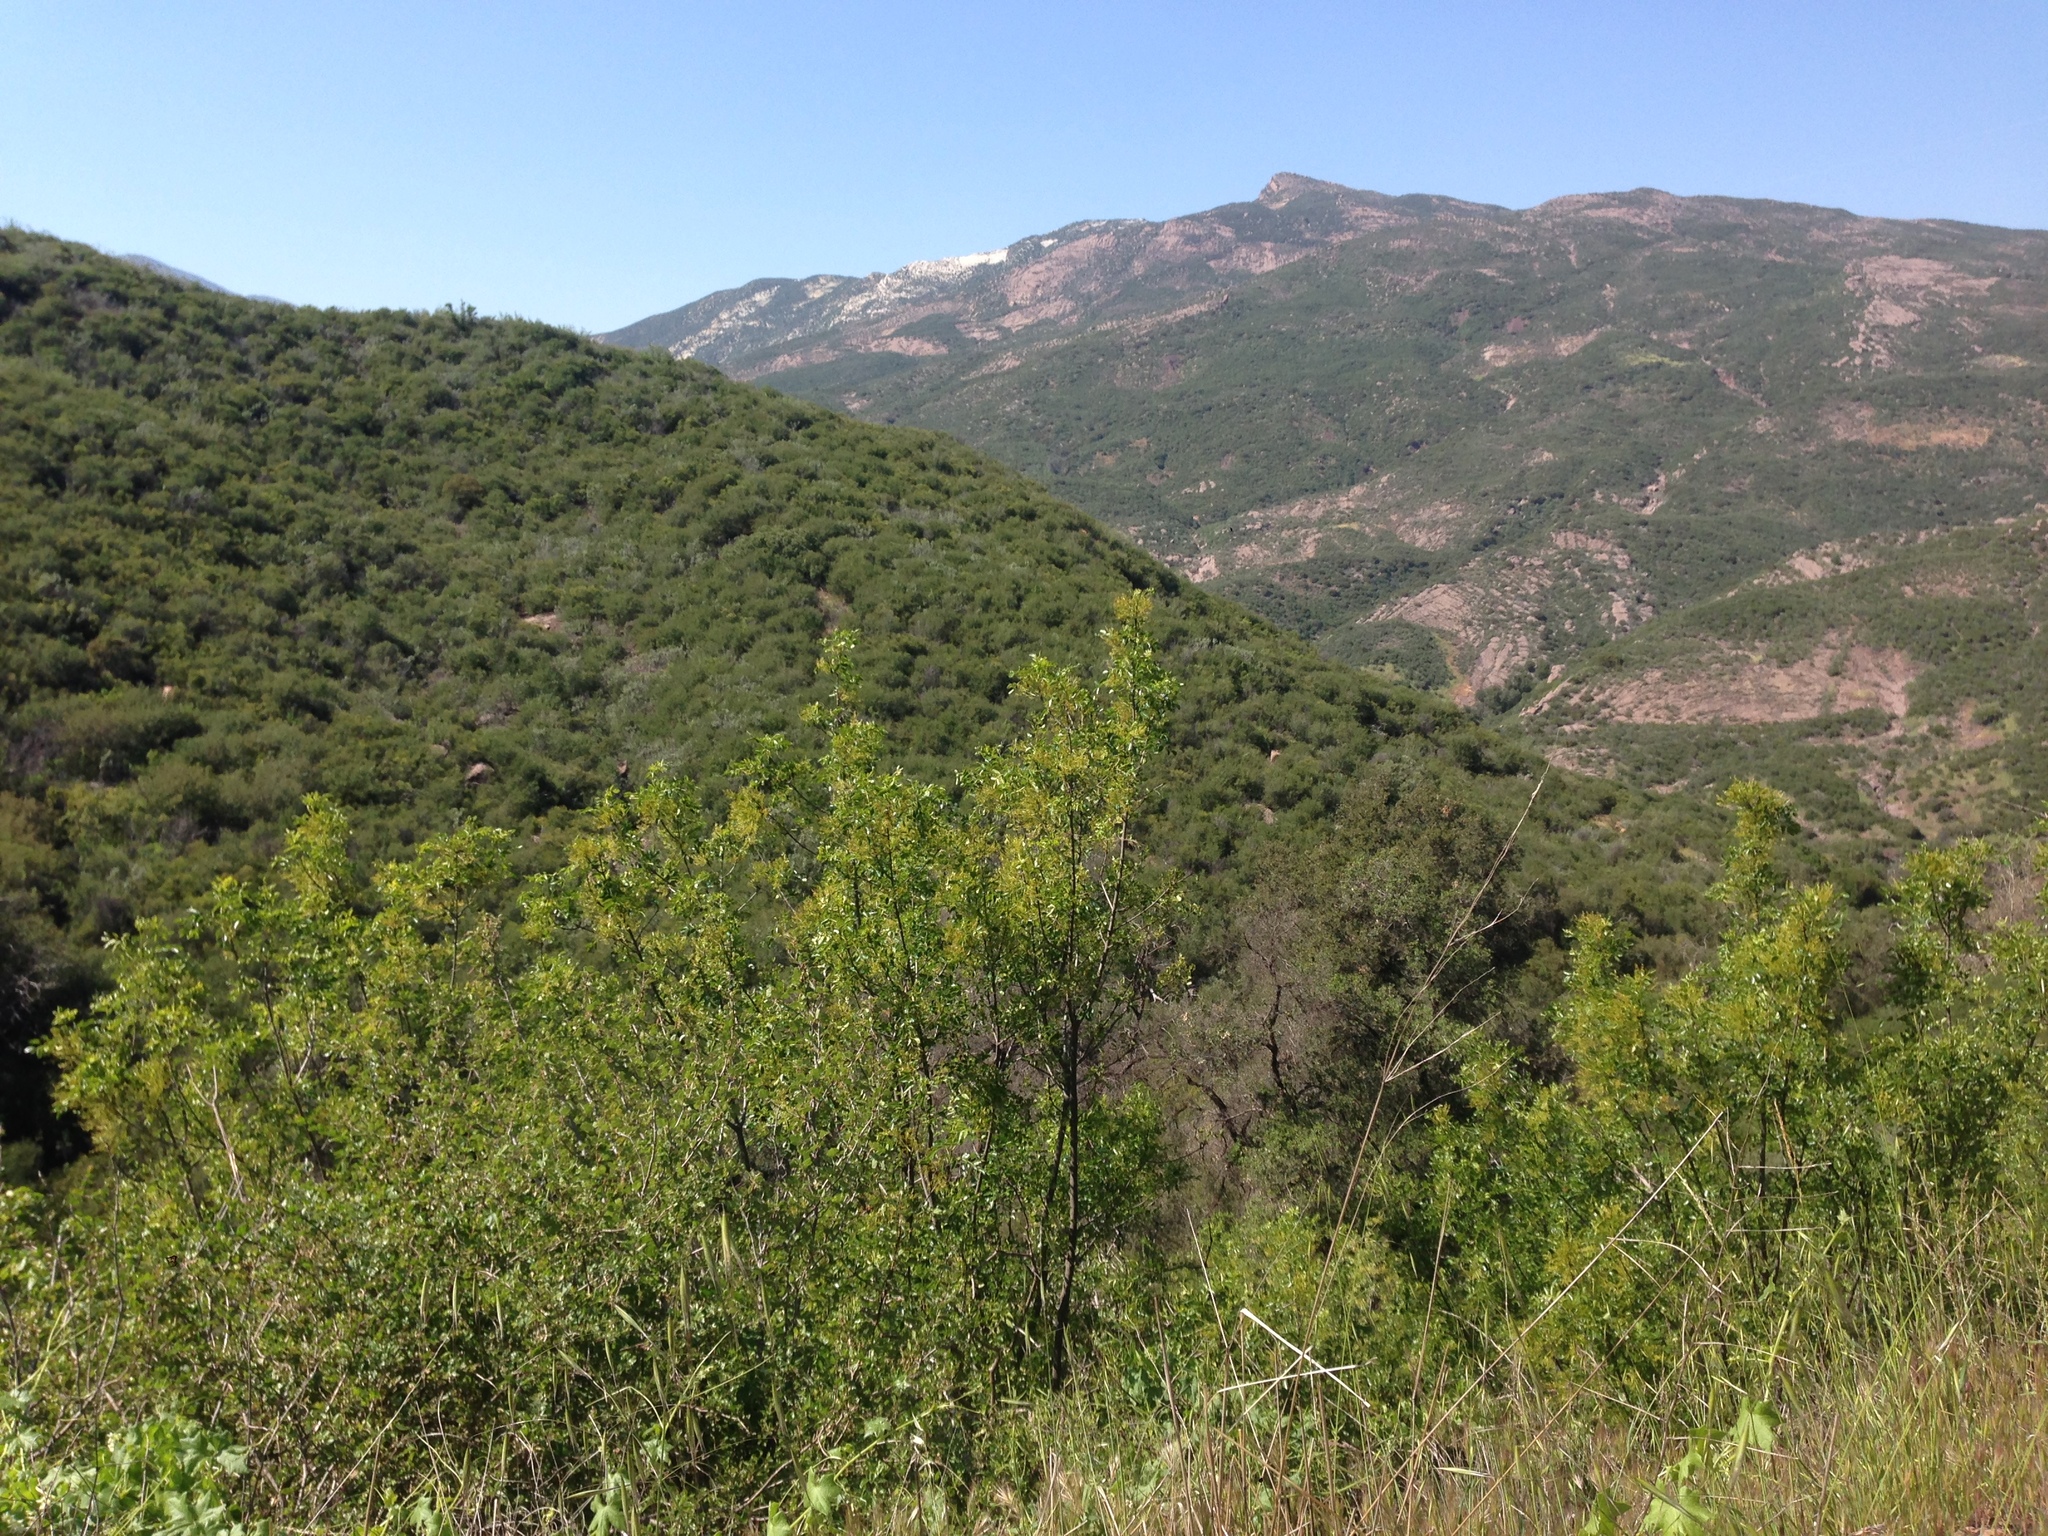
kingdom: Plantae
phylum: Tracheophyta
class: Magnoliopsida
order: Lamiales
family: Oleaceae
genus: Fraxinus
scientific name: Fraxinus dipetala
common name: California ash
